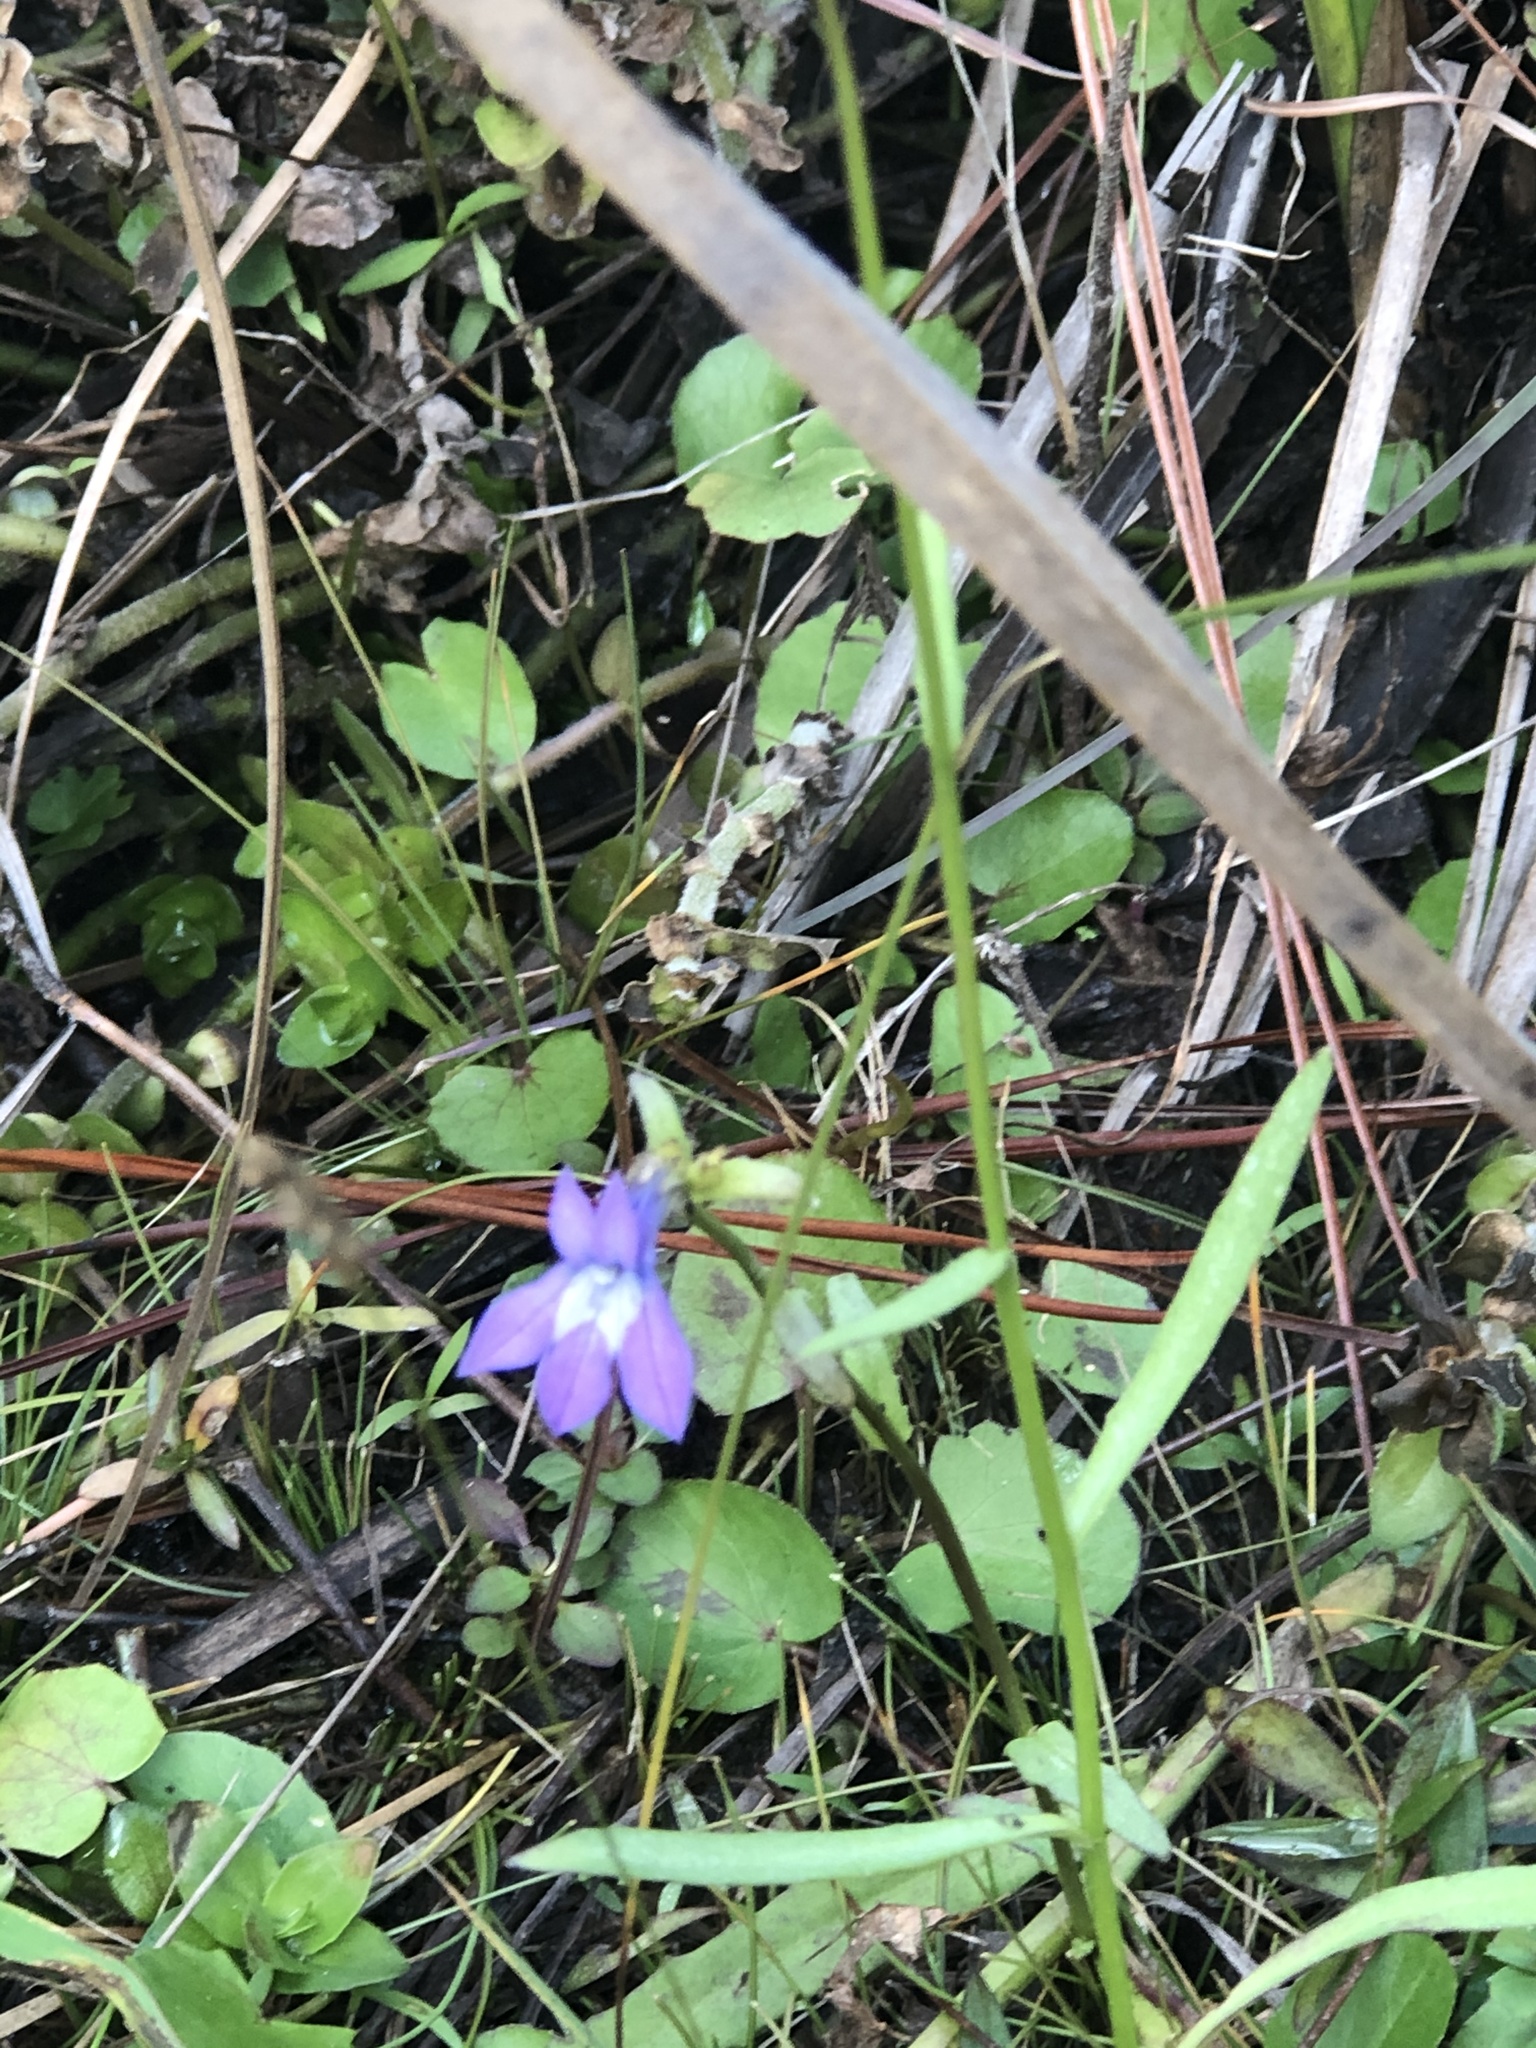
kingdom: Plantae
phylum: Tracheophyta
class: Magnoliopsida
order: Asterales
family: Campanulaceae
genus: Lobelia
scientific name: Lobelia glandulosa
